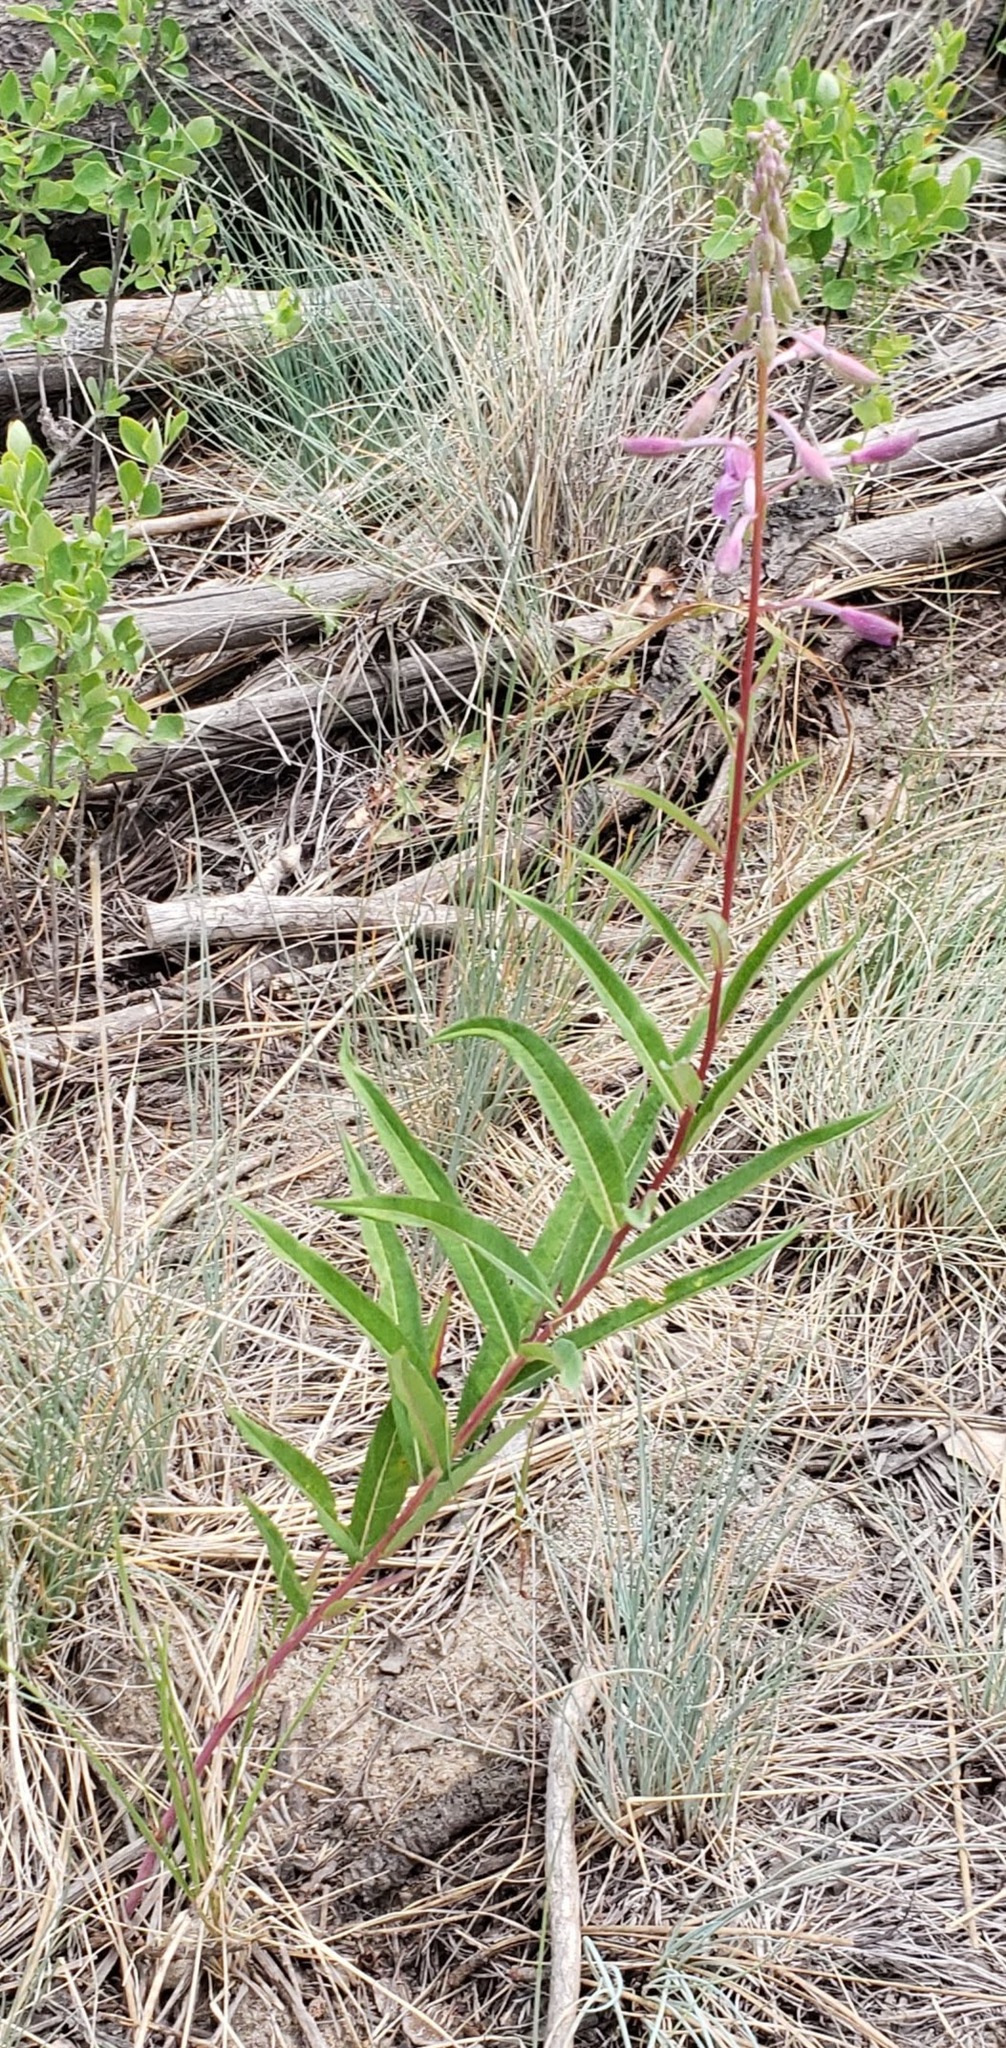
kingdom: Plantae
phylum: Tracheophyta
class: Magnoliopsida
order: Myrtales
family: Onagraceae
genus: Chamaenerion
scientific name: Chamaenerion angustifolium
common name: Fireweed
